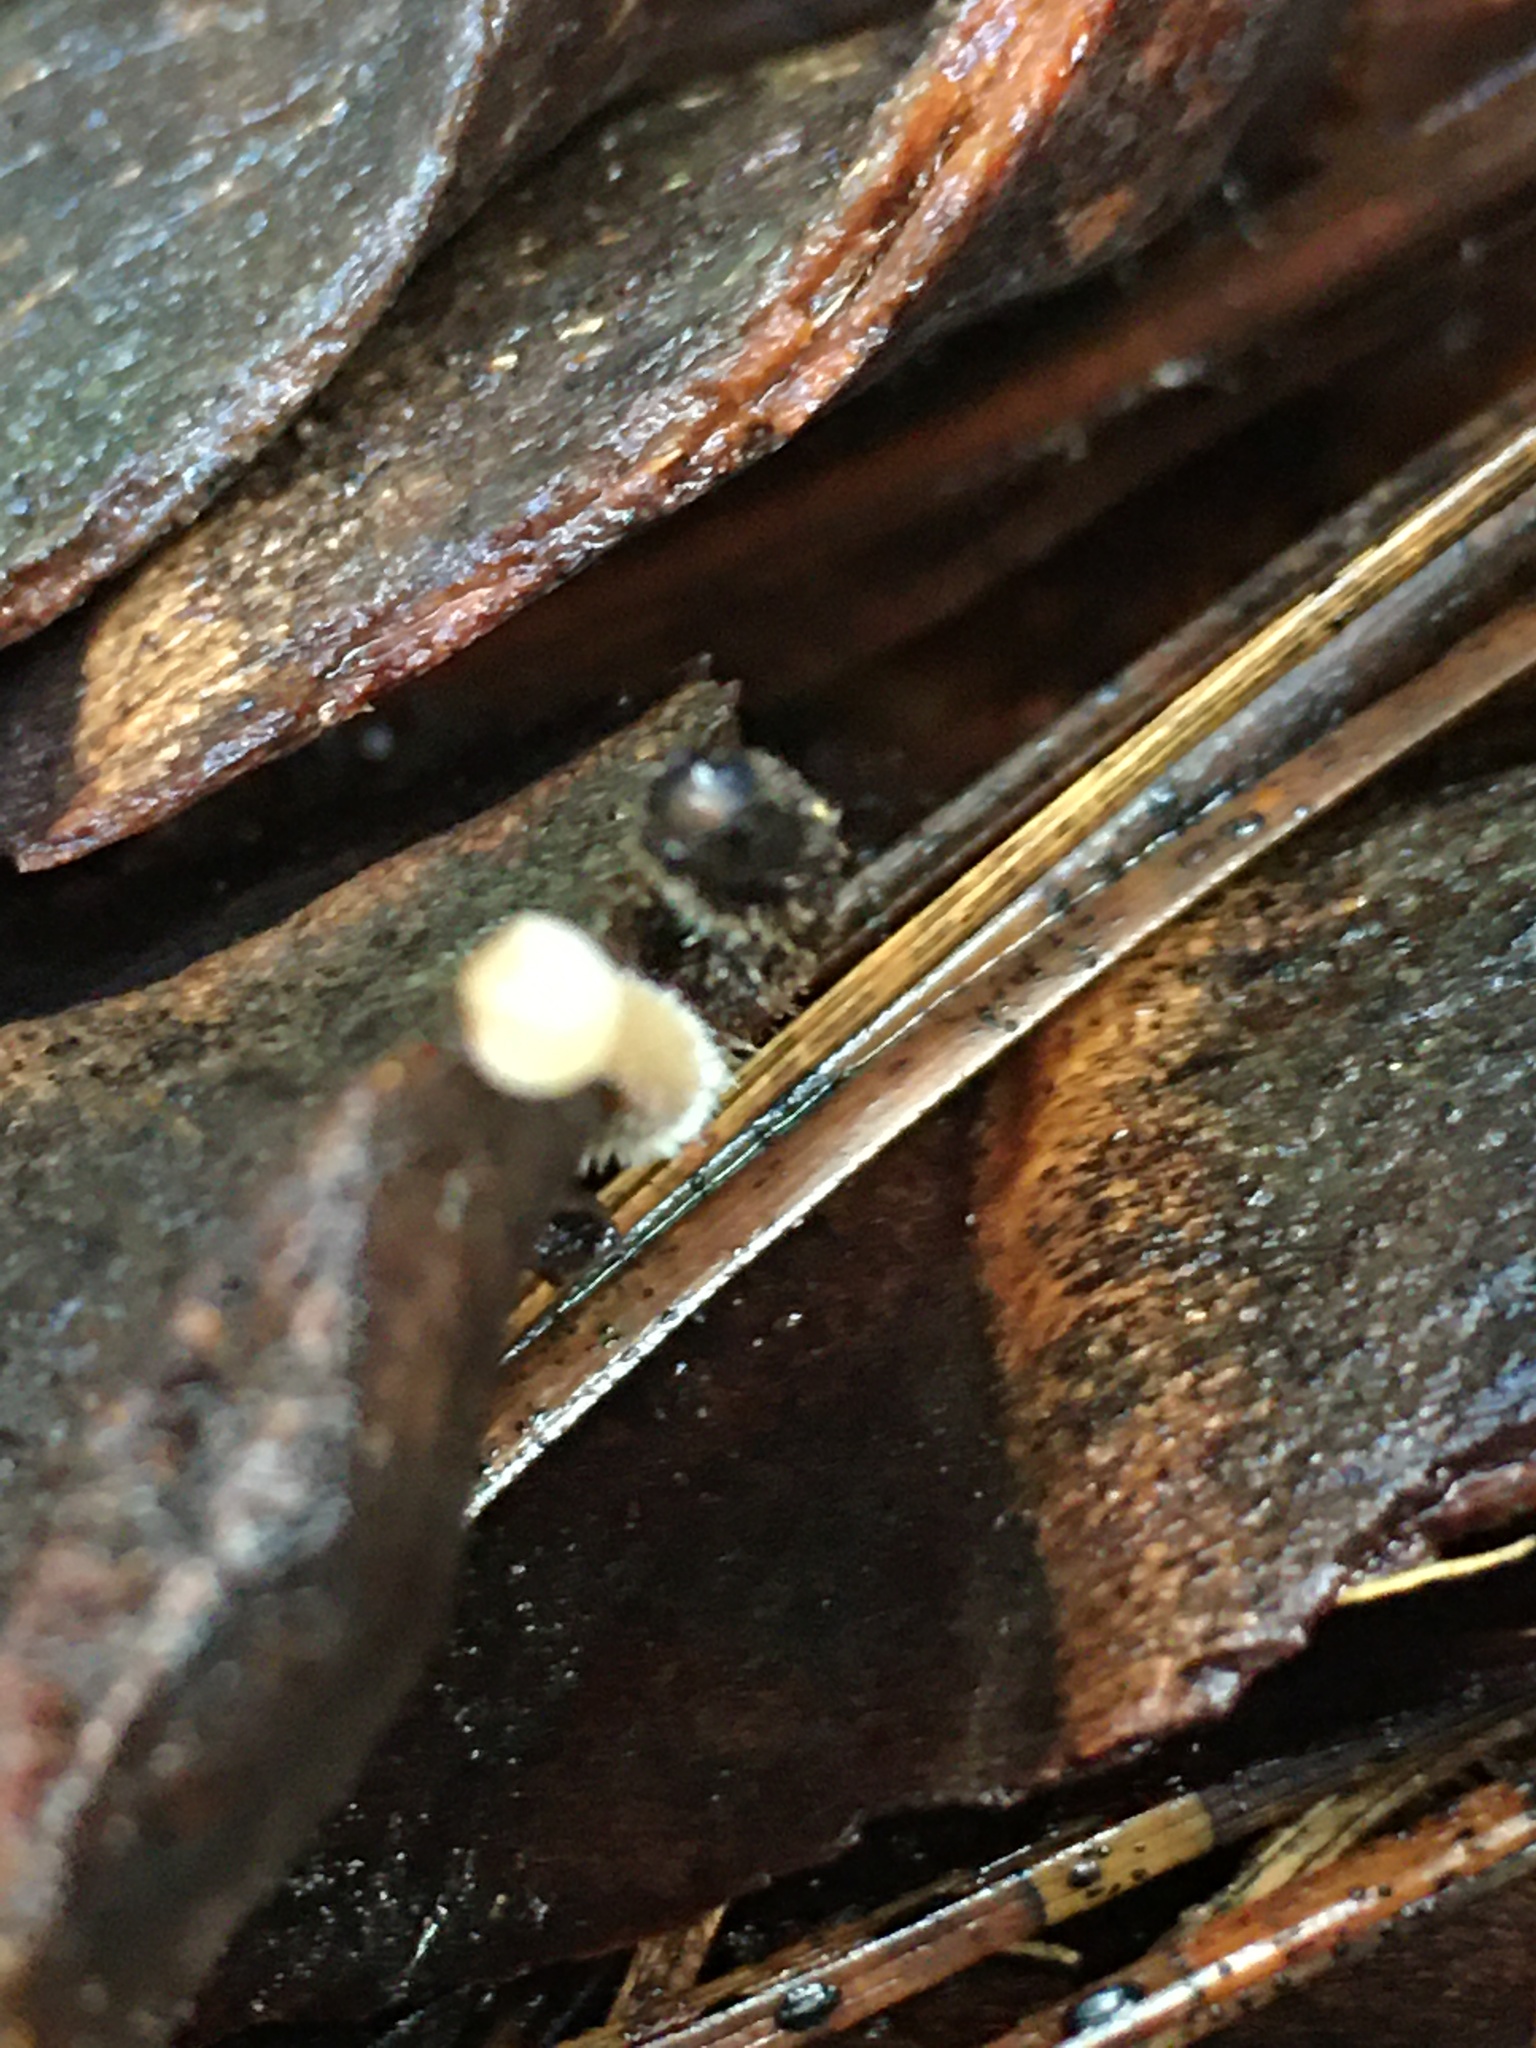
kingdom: Fungi
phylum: Basidiomycota
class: Agaricomycetes
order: Russulales
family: Auriscalpiaceae
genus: Auriscalpium
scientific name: Auriscalpium vulgare
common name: Earpick fungus
